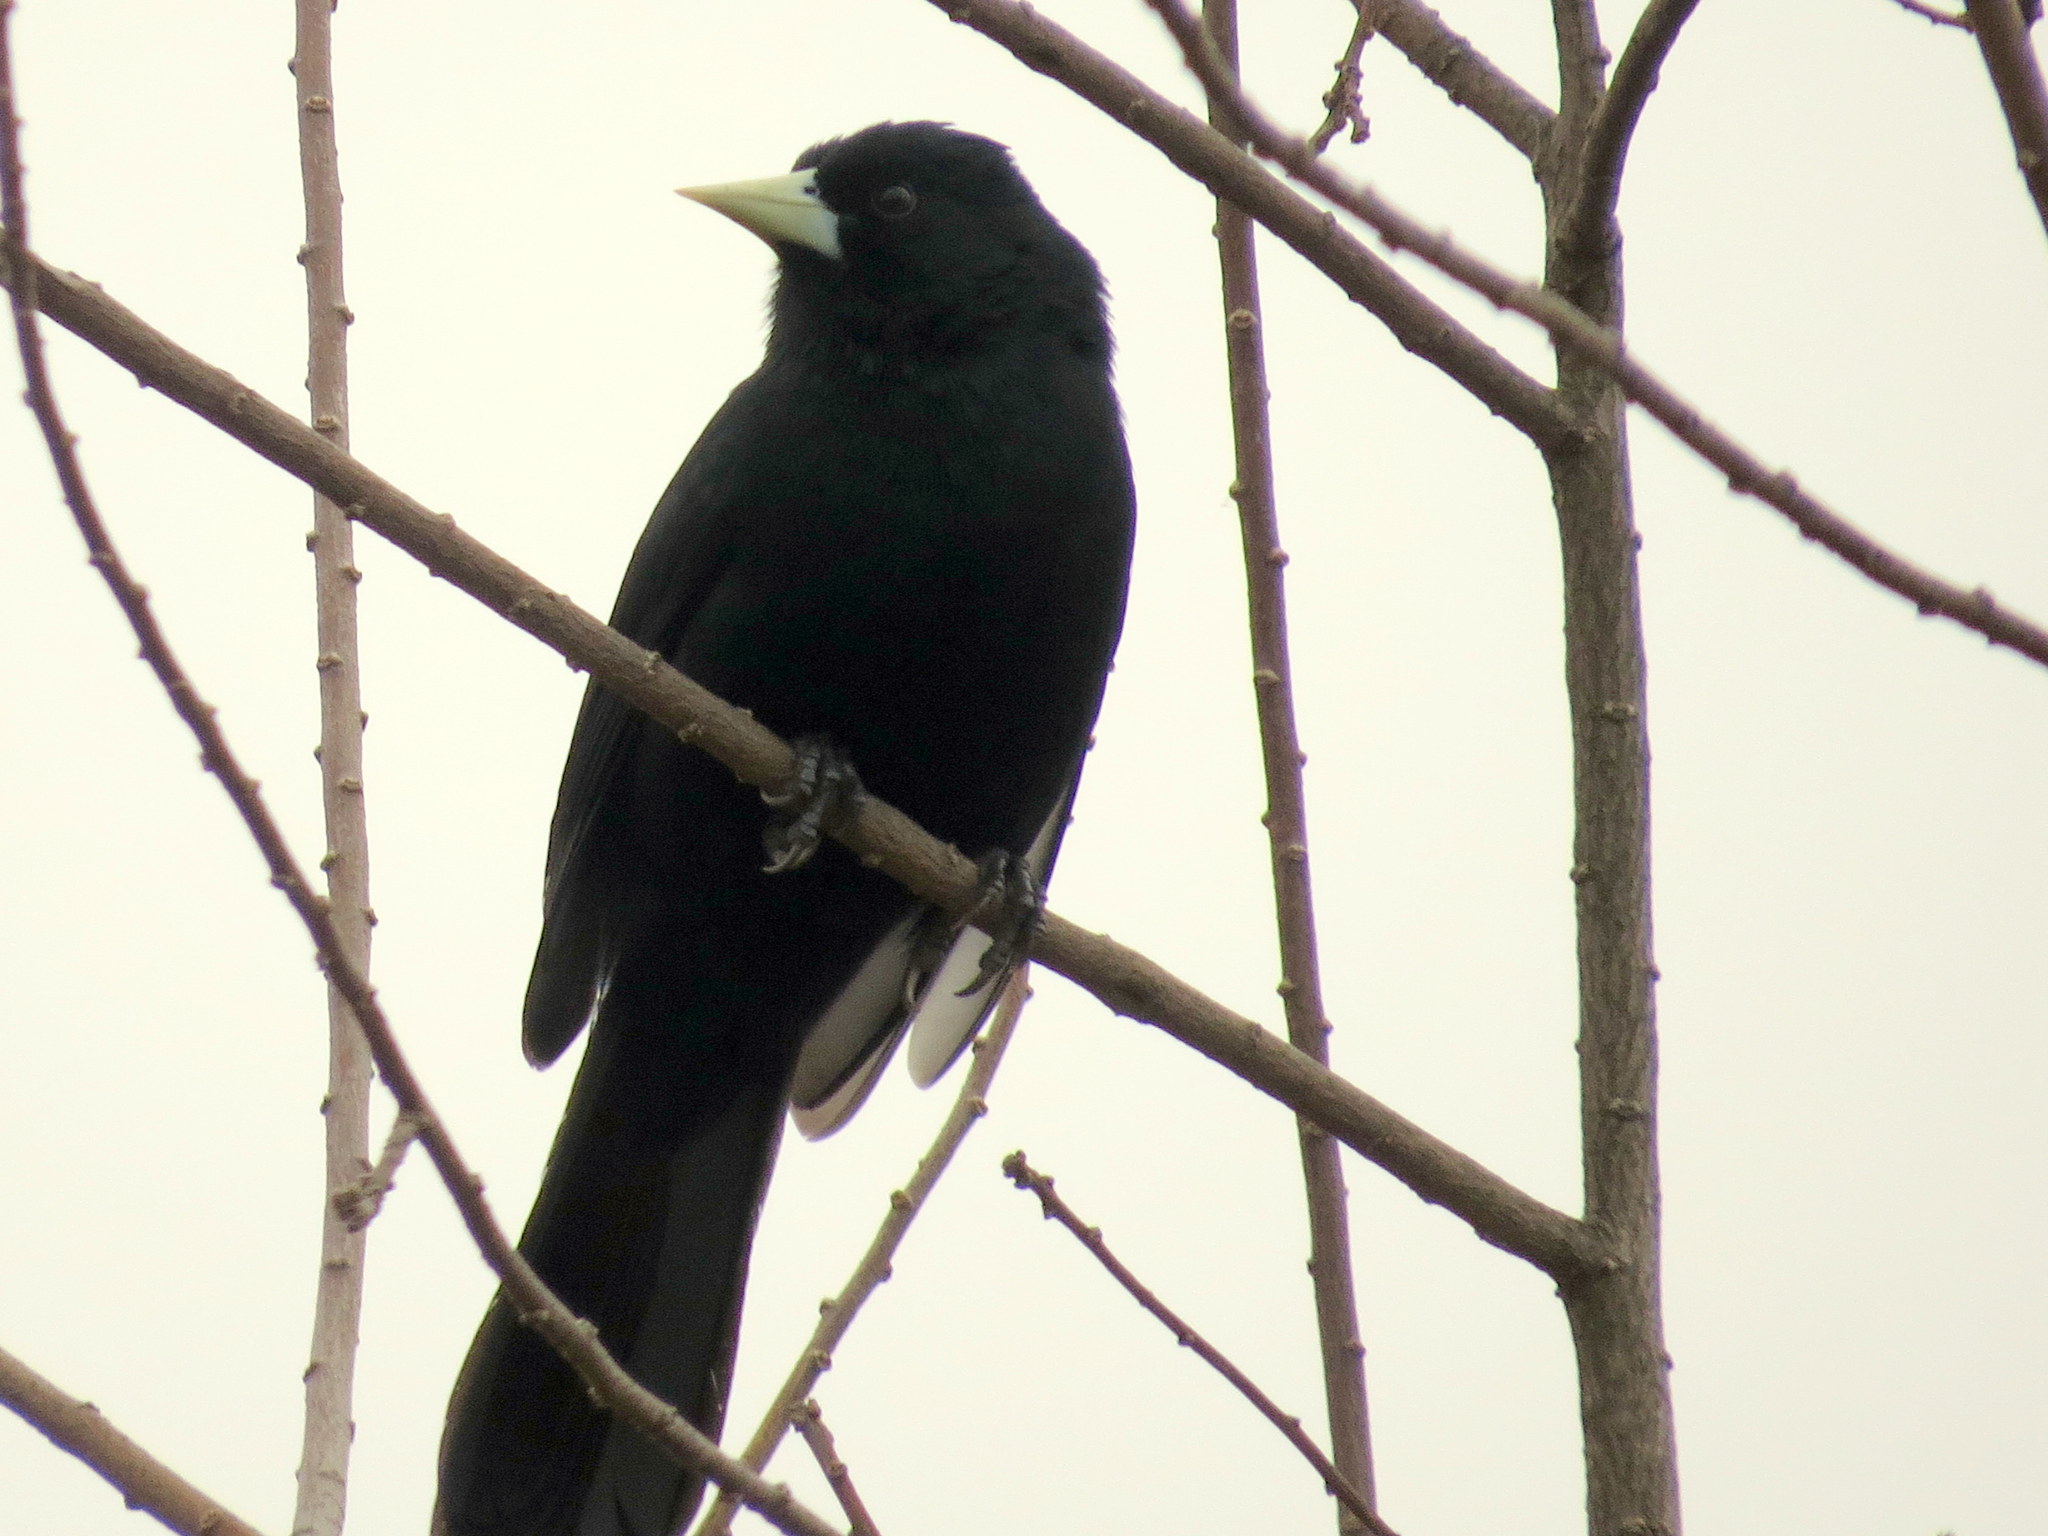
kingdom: Animalia
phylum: Chordata
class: Aves
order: Passeriformes
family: Icteridae
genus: Cacicus
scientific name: Cacicus solitarius
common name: Solitary cacique
